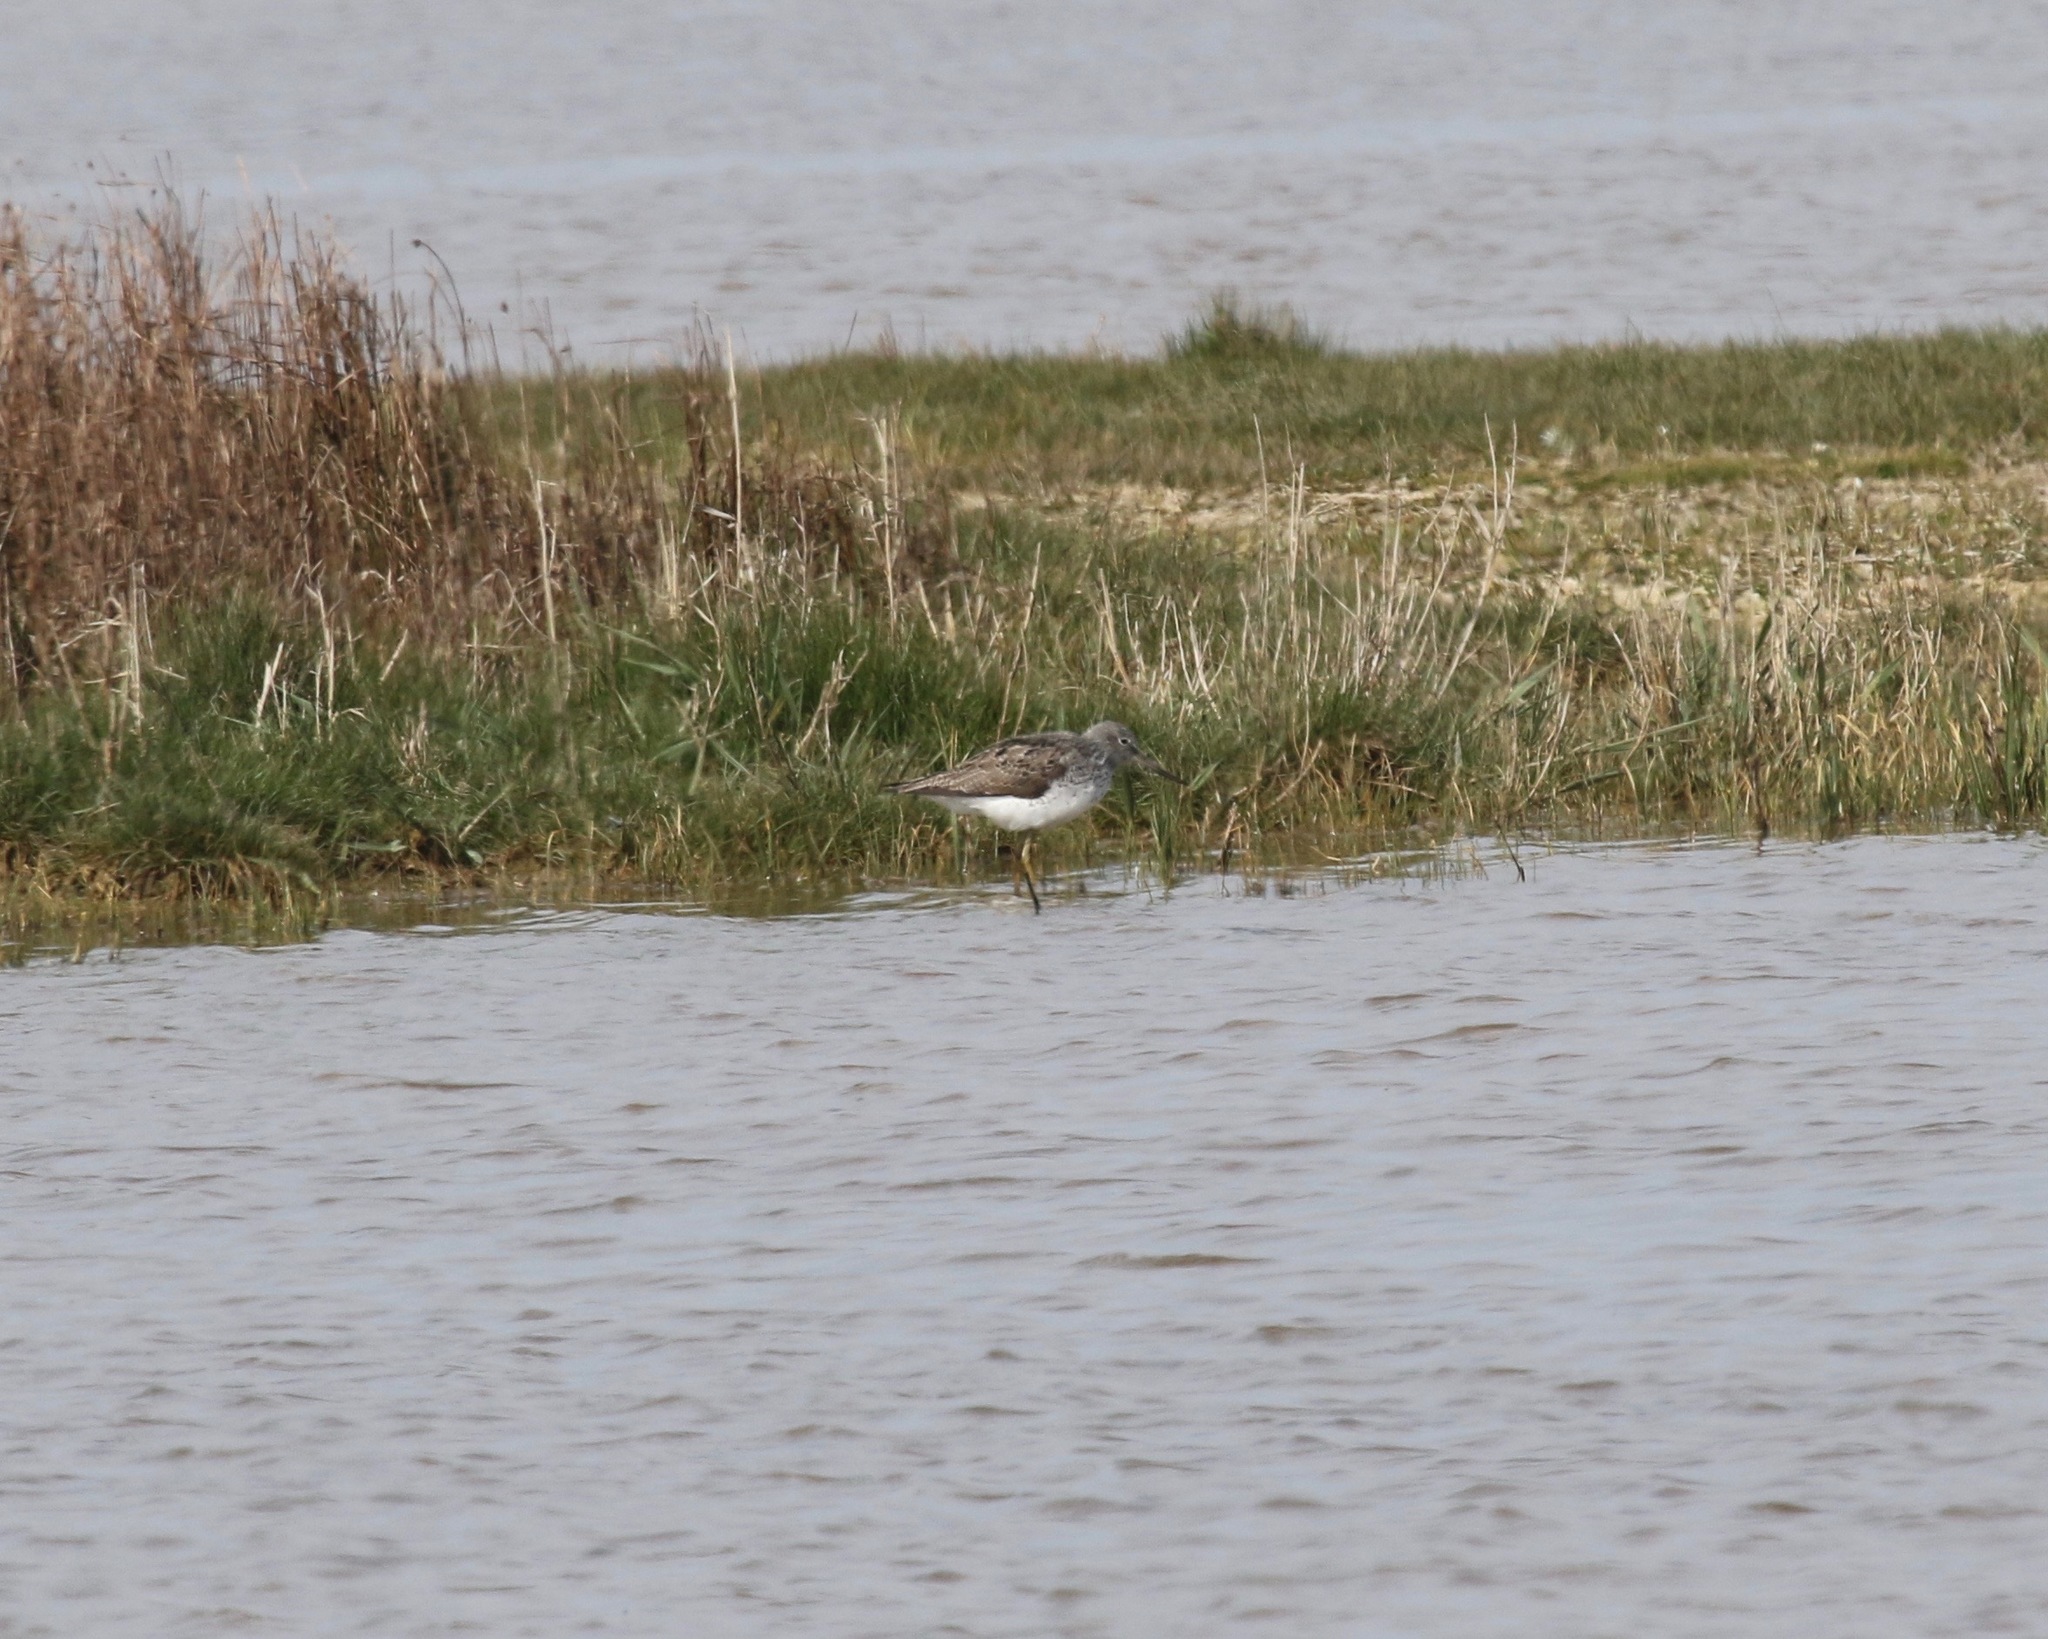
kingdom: Animalia
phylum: Chordata
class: Aves
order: Charadriiformes
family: Scolopacidae
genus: Tringa
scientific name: Tringa nebularia
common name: Common greenshank
